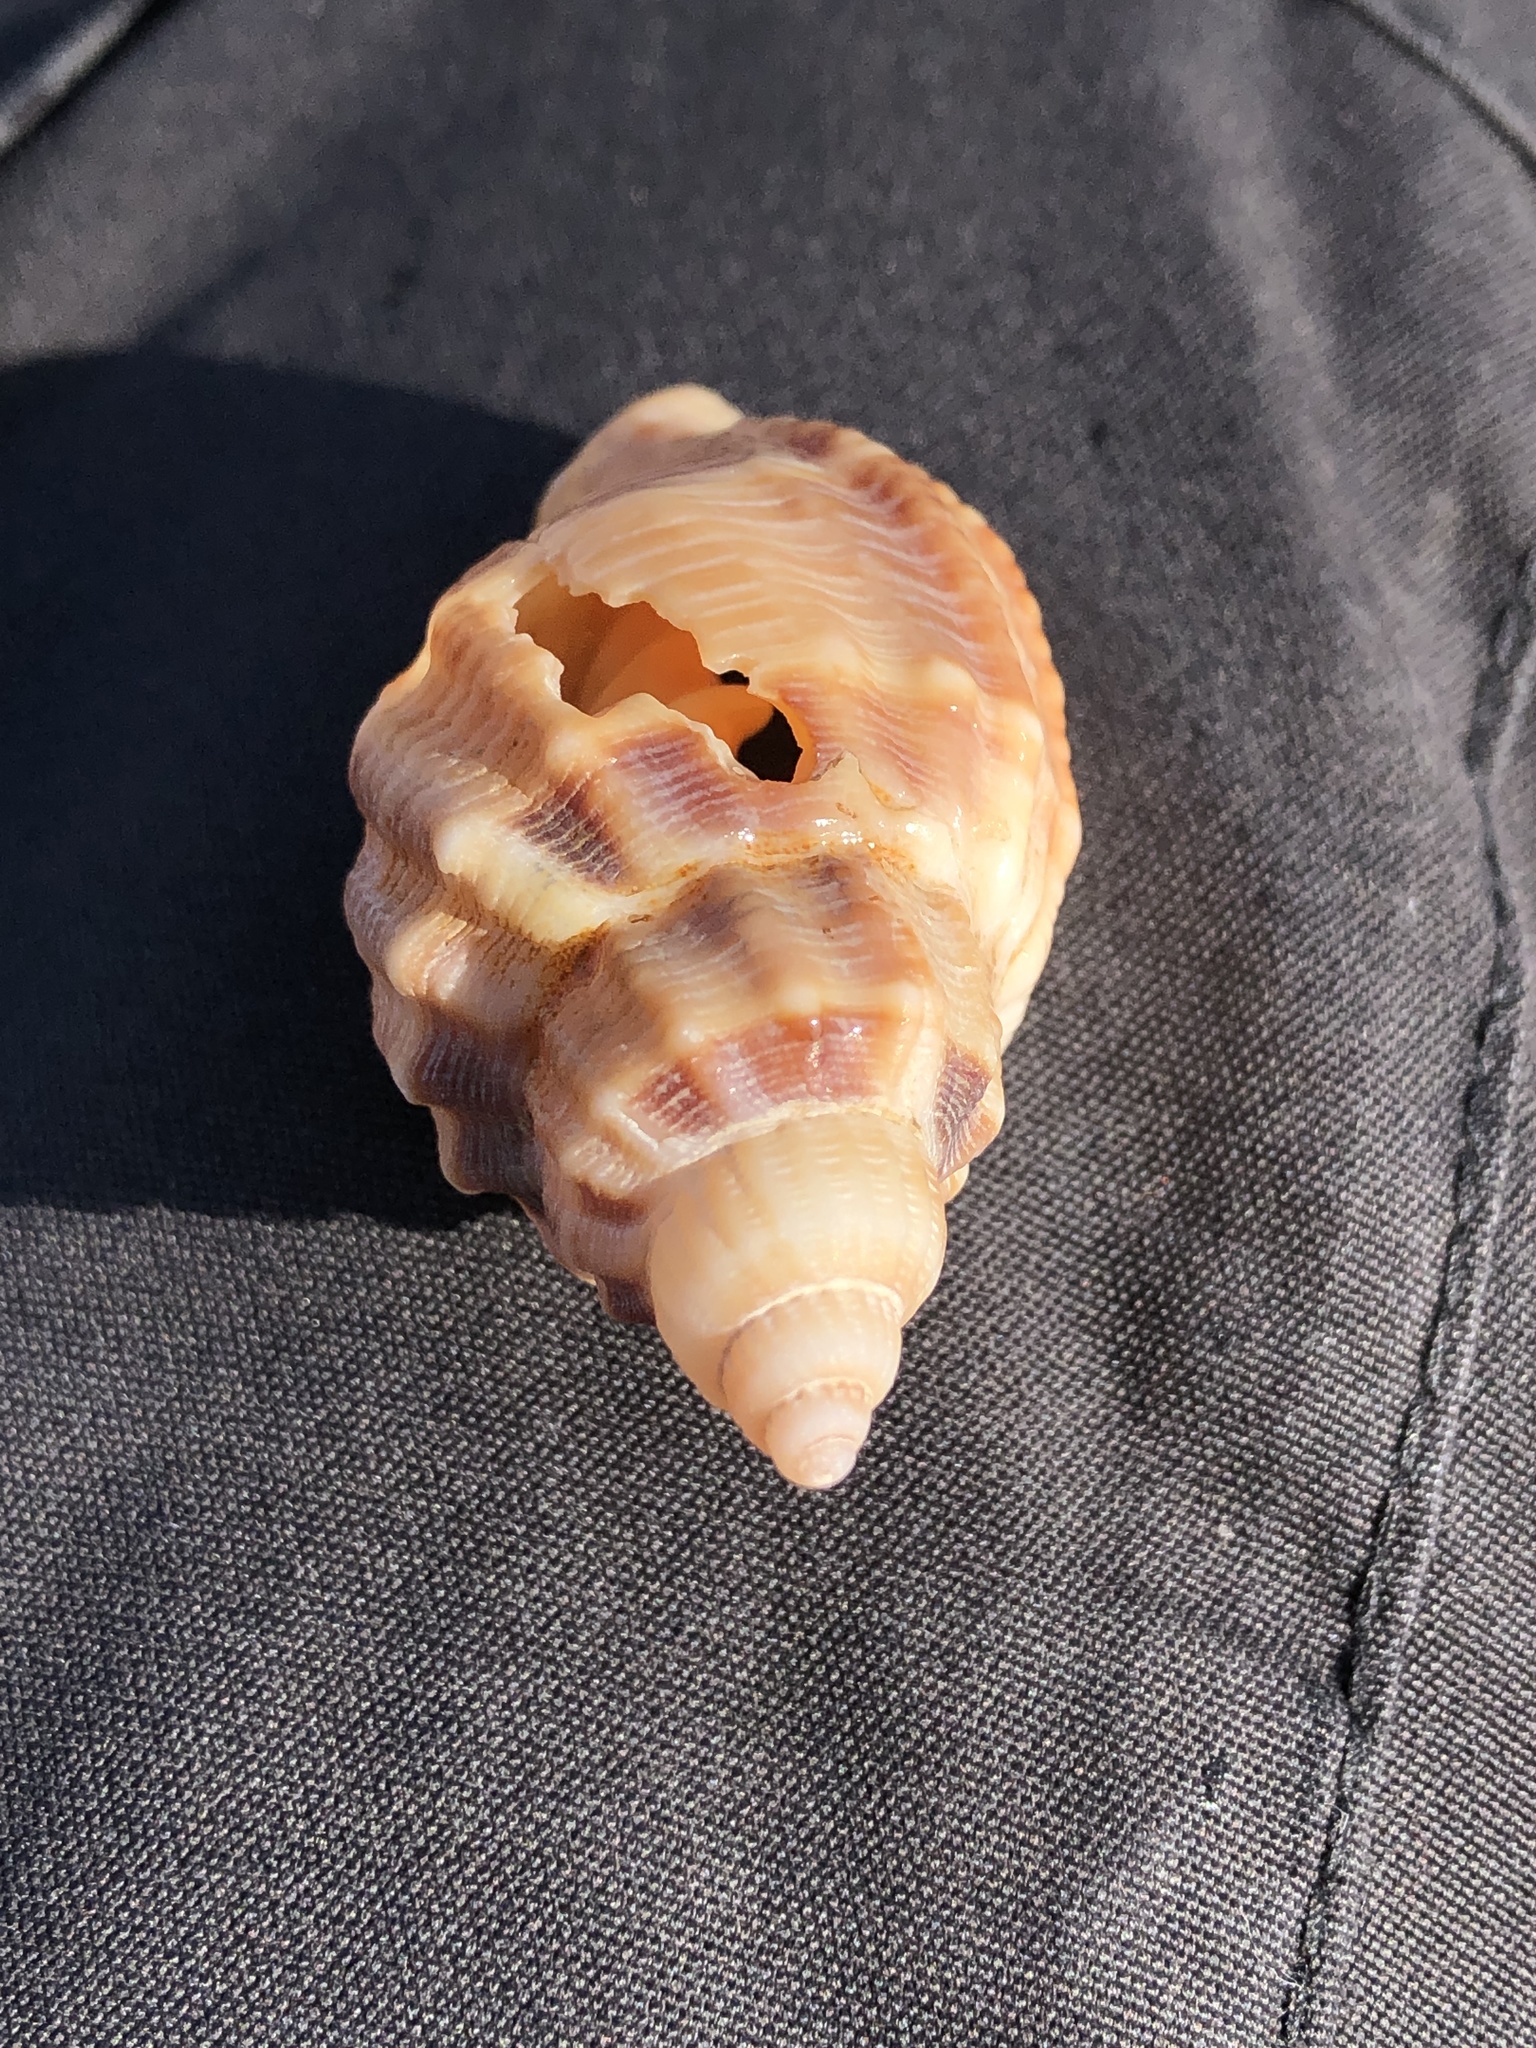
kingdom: Animalia
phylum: Mollusca
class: Gastropoda
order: Neogastropoda
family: Cancellariidae
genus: Sydaphera
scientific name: Sydaphera spengleriana
